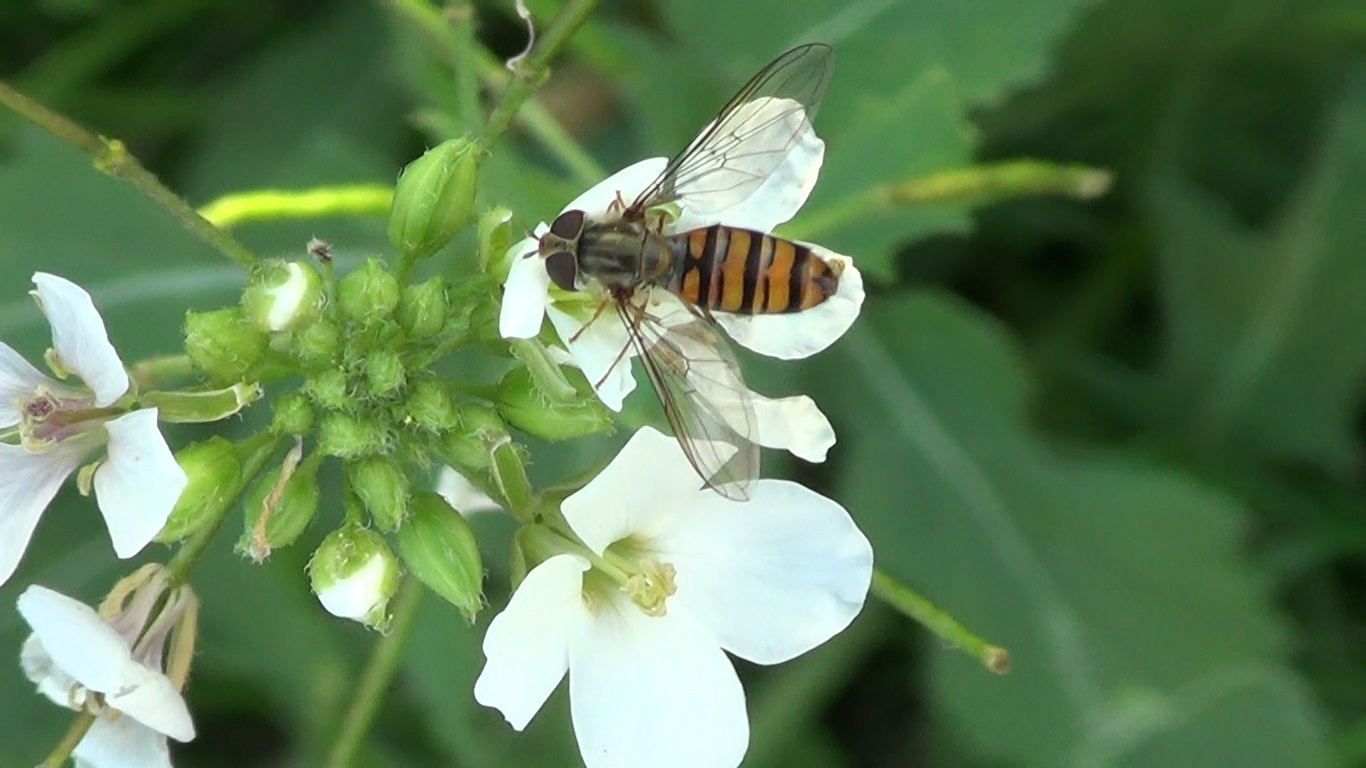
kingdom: Animalia
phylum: Arthropoda
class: Insecta
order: Diptera
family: Syrphidae
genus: Episyrphus
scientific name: Episyrphus balteatus
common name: Marmalade hoverfly
